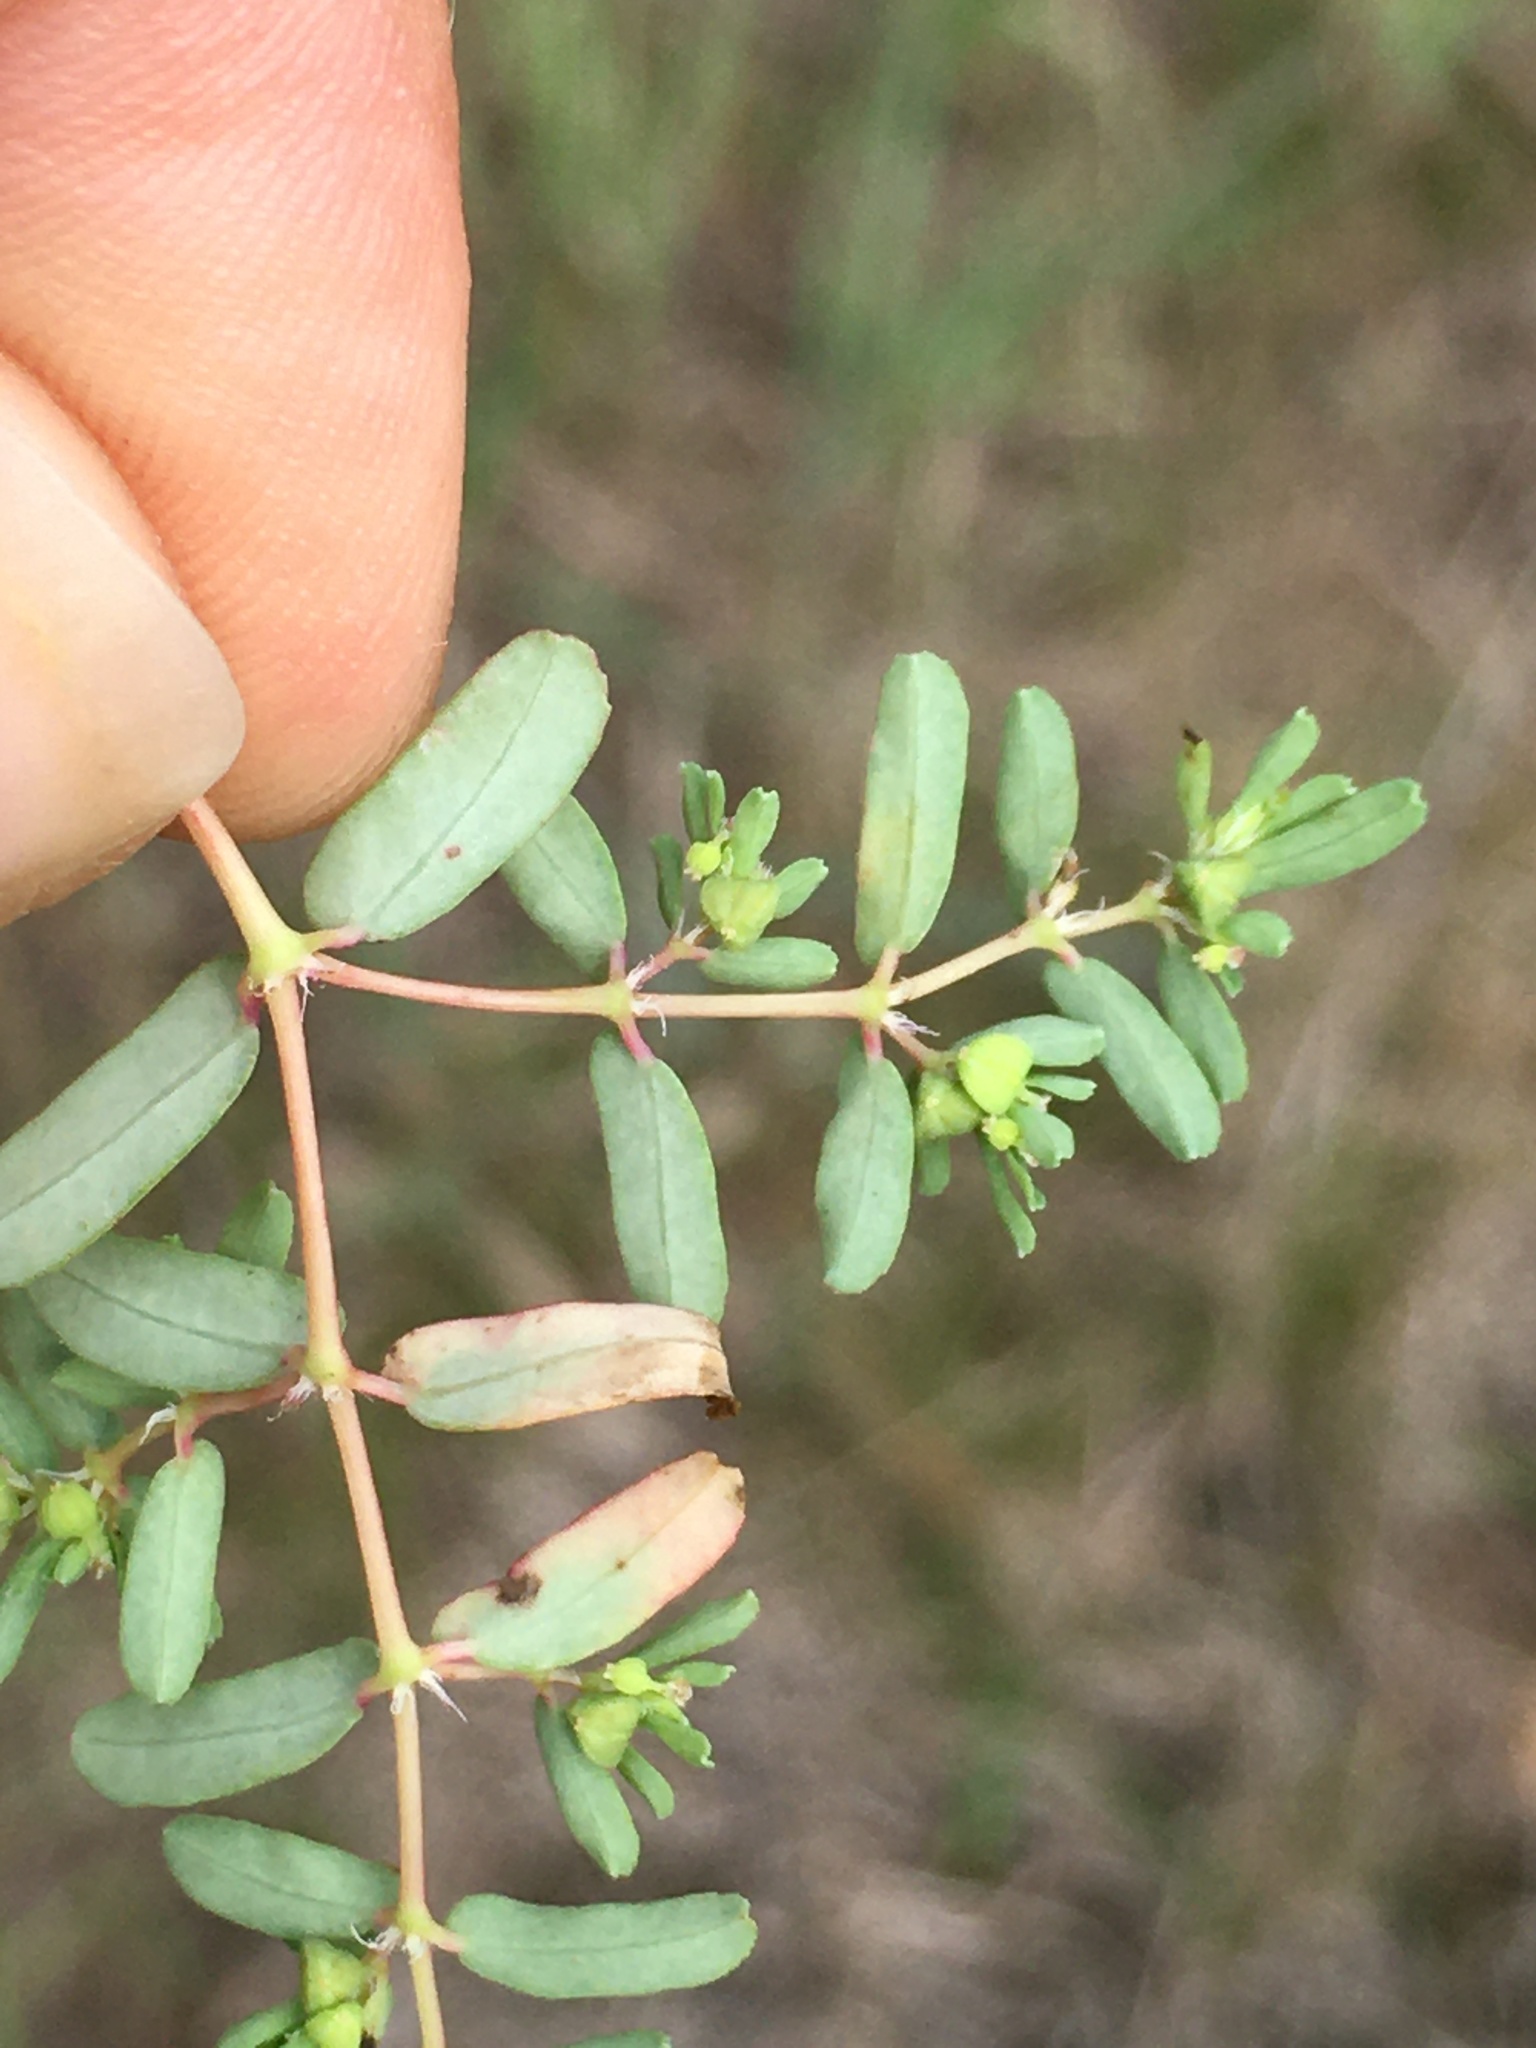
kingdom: Plantae
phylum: Tracheophyta
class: Magnoliopsida
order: Malpighiales
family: Euphorbiaceae
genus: Euphorbia
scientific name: Euphorbia glyptosperma
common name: Corrugate-seeded spurge
